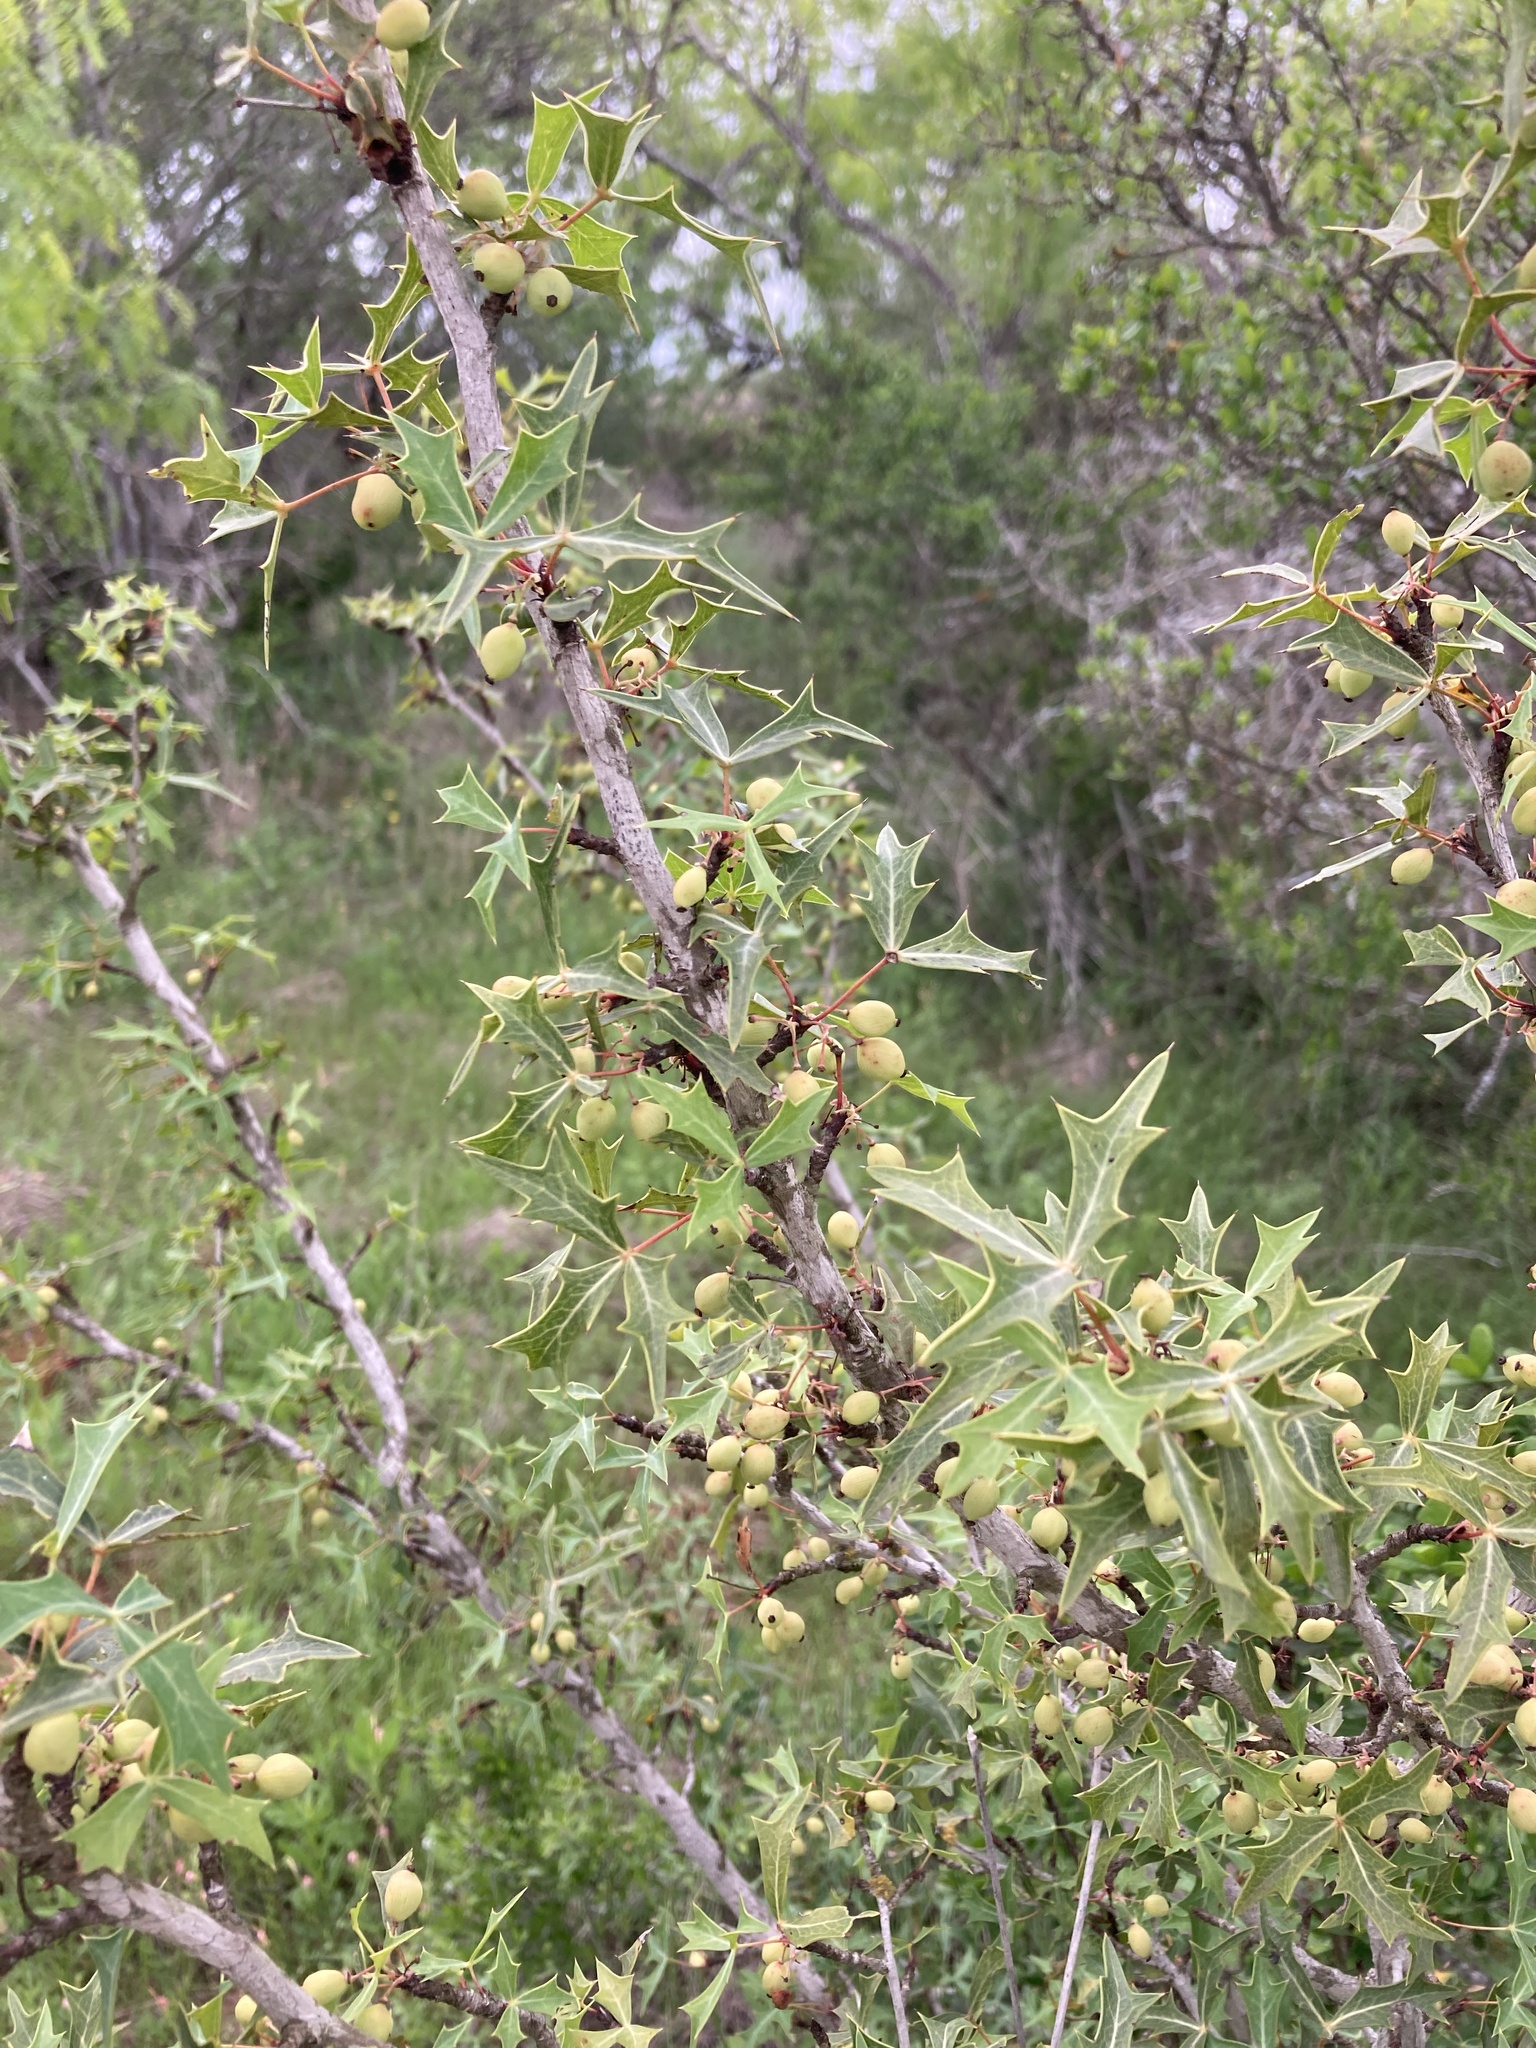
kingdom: Plantae
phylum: Tracheophyta
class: Magnoliopsida
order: Ranunculales
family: Berberidaceae
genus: Alloberberis
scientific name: Alloberberis trifoliolata
